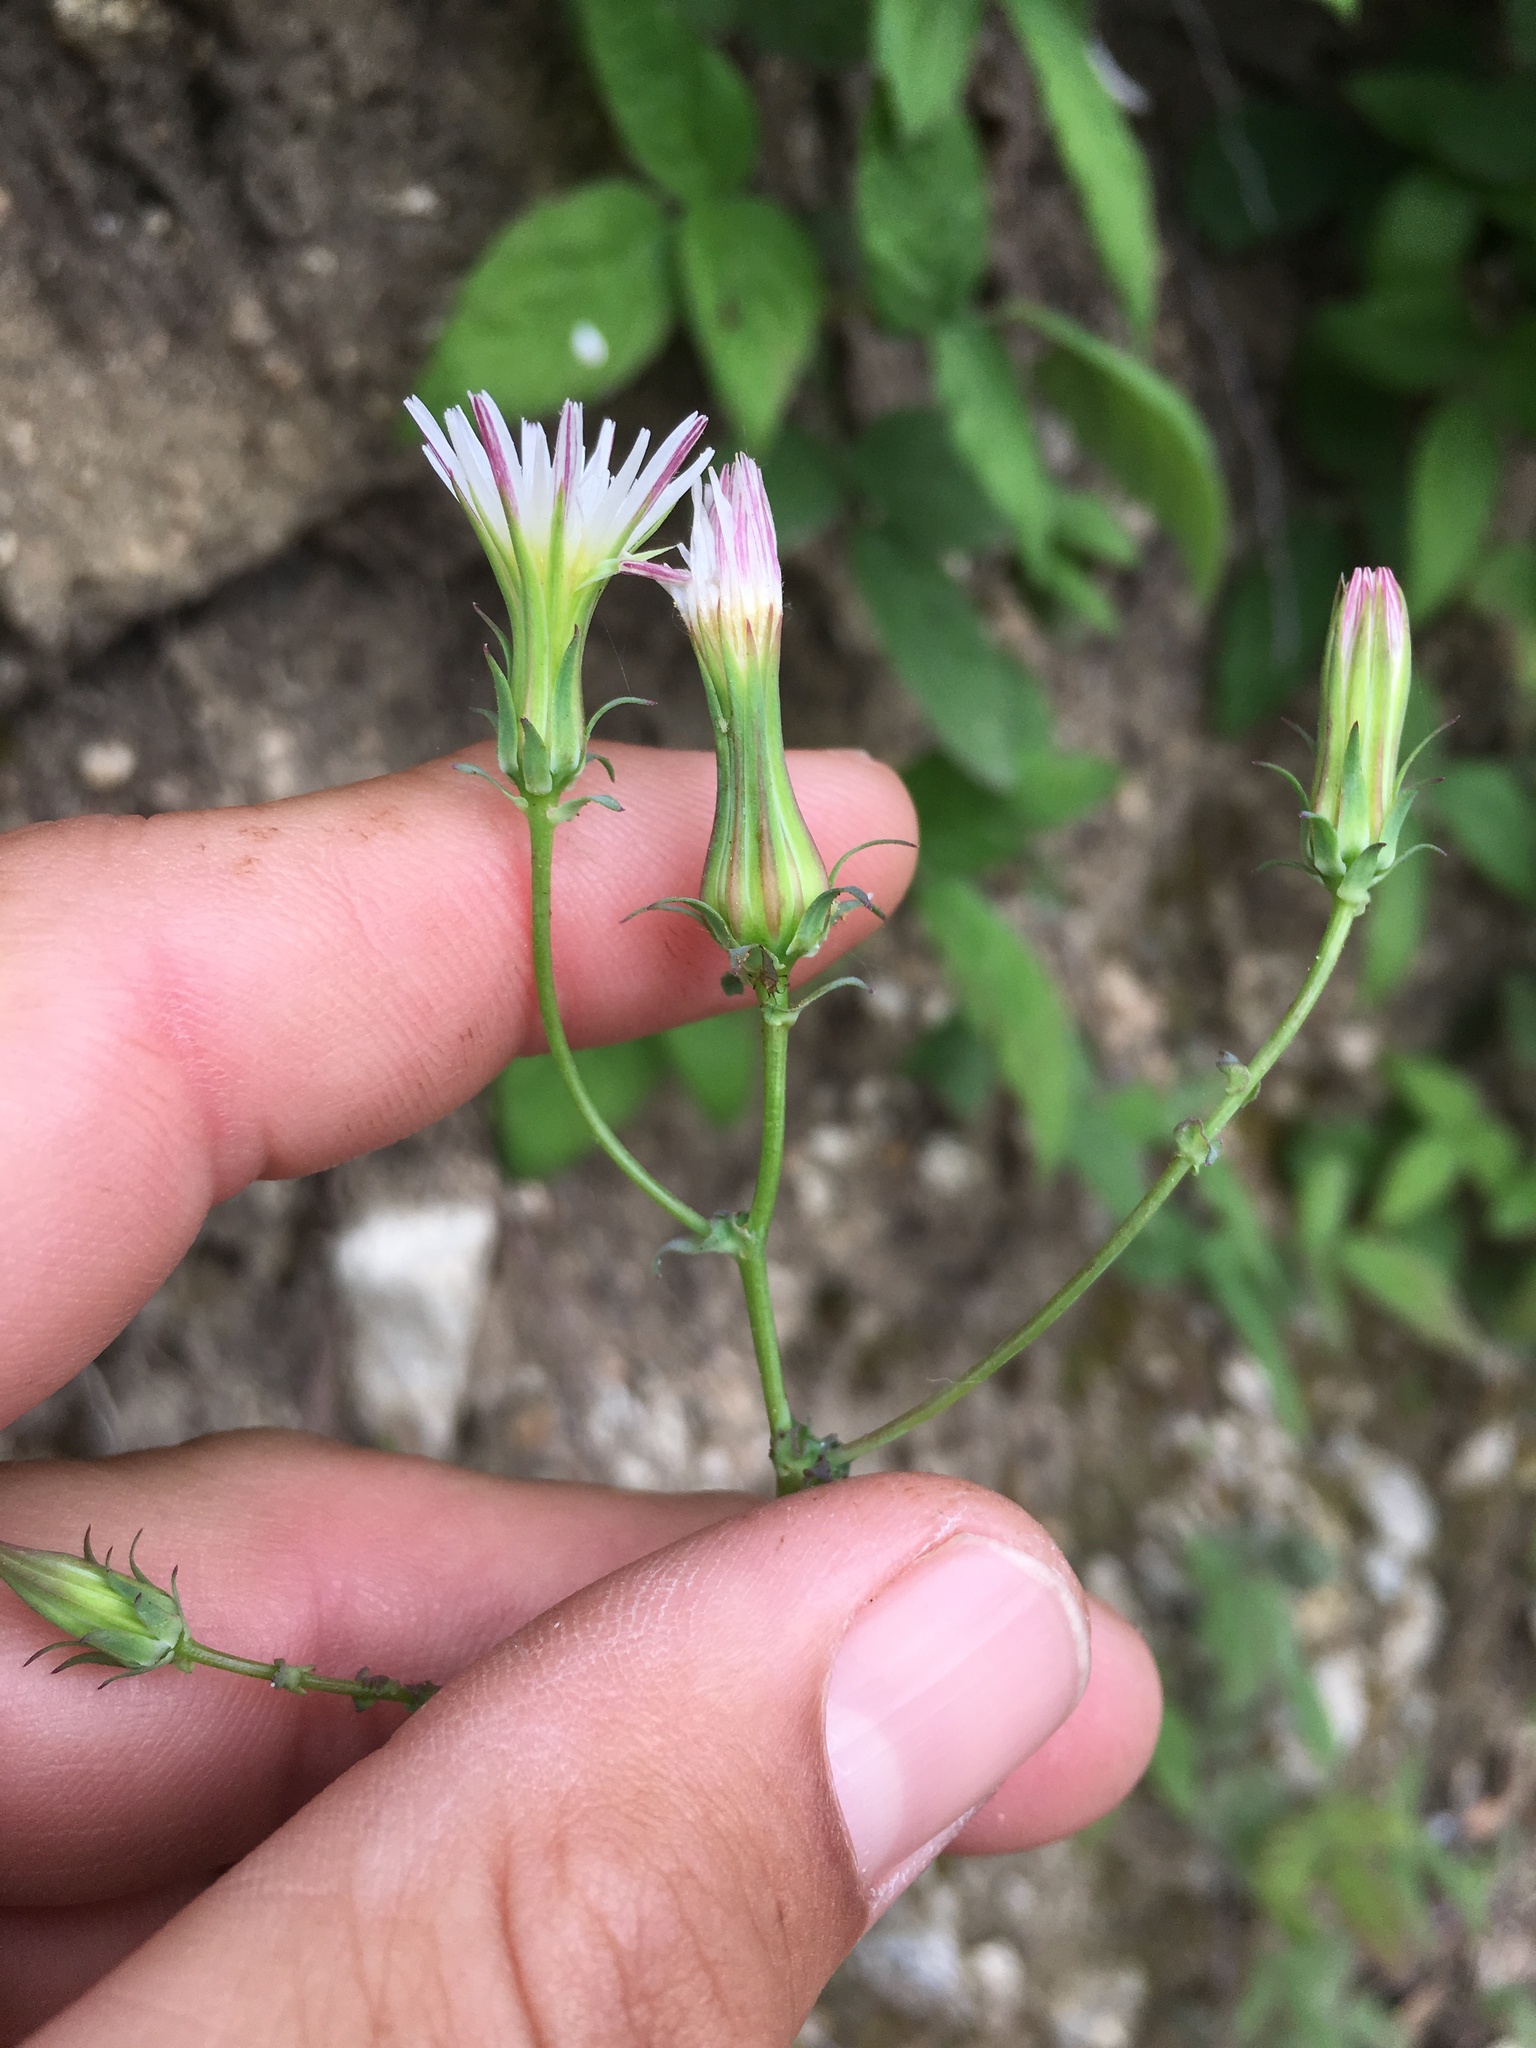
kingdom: Plantae
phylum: Tracheophyta
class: Magnoliopsida
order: Asterales
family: Asteraceae
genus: Rafinesquia
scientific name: Rafinesquia californica
